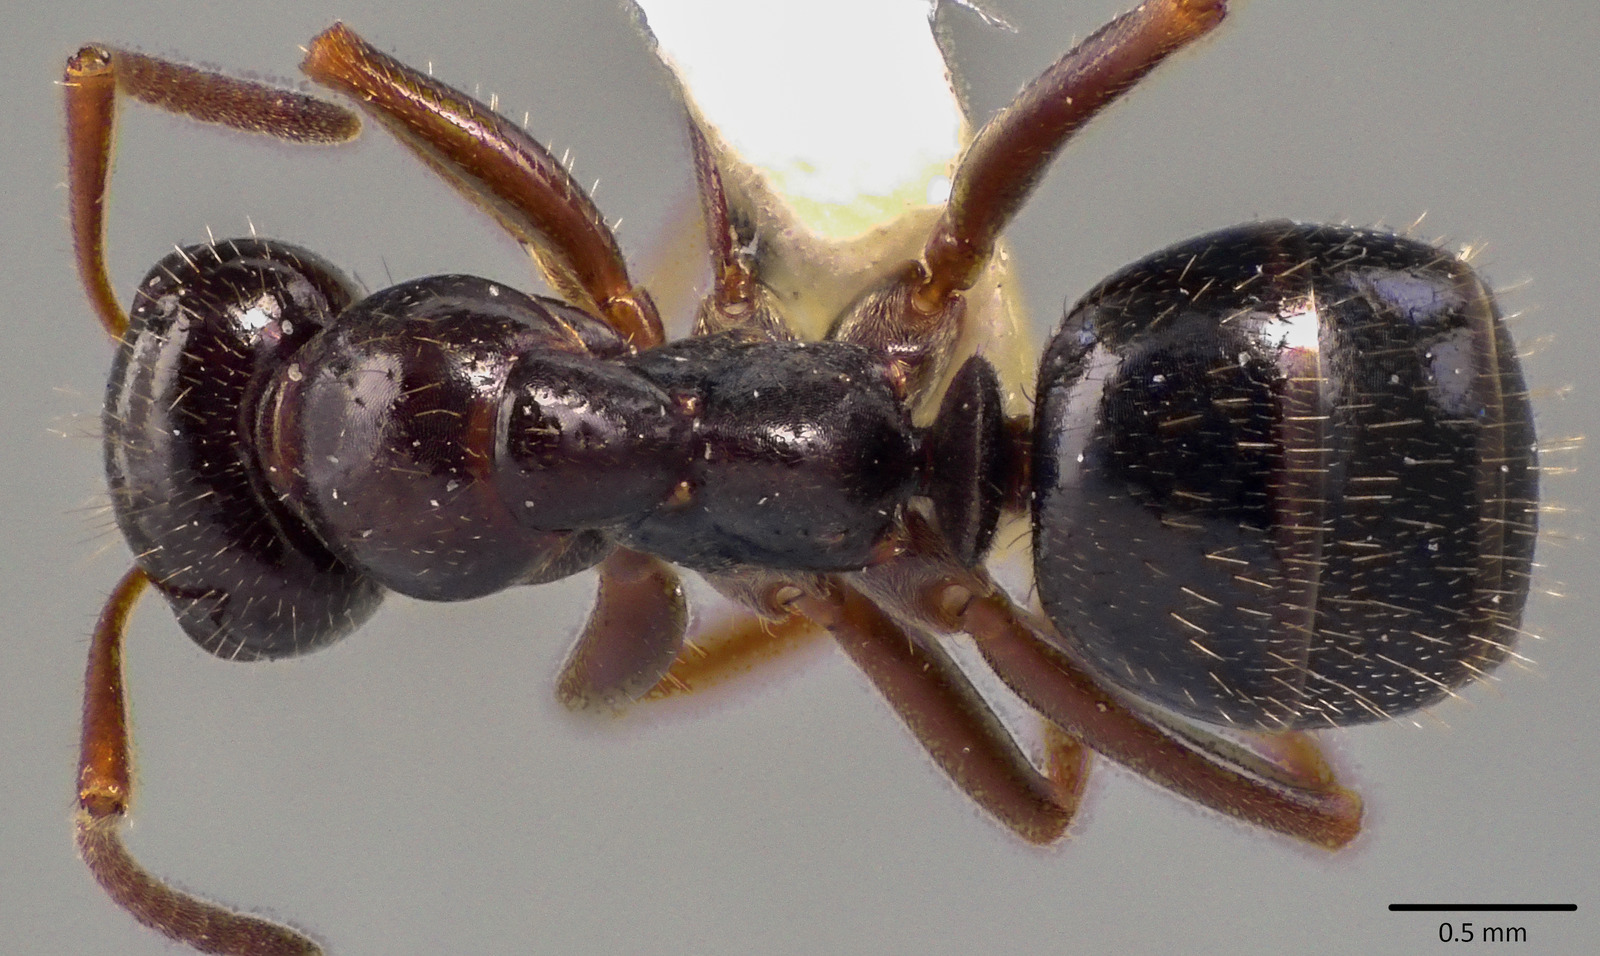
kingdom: Animalia
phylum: Arthropoda
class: Insecta
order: Hymenoptera
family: Formicidae
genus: Formica
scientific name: Formica lasioides
